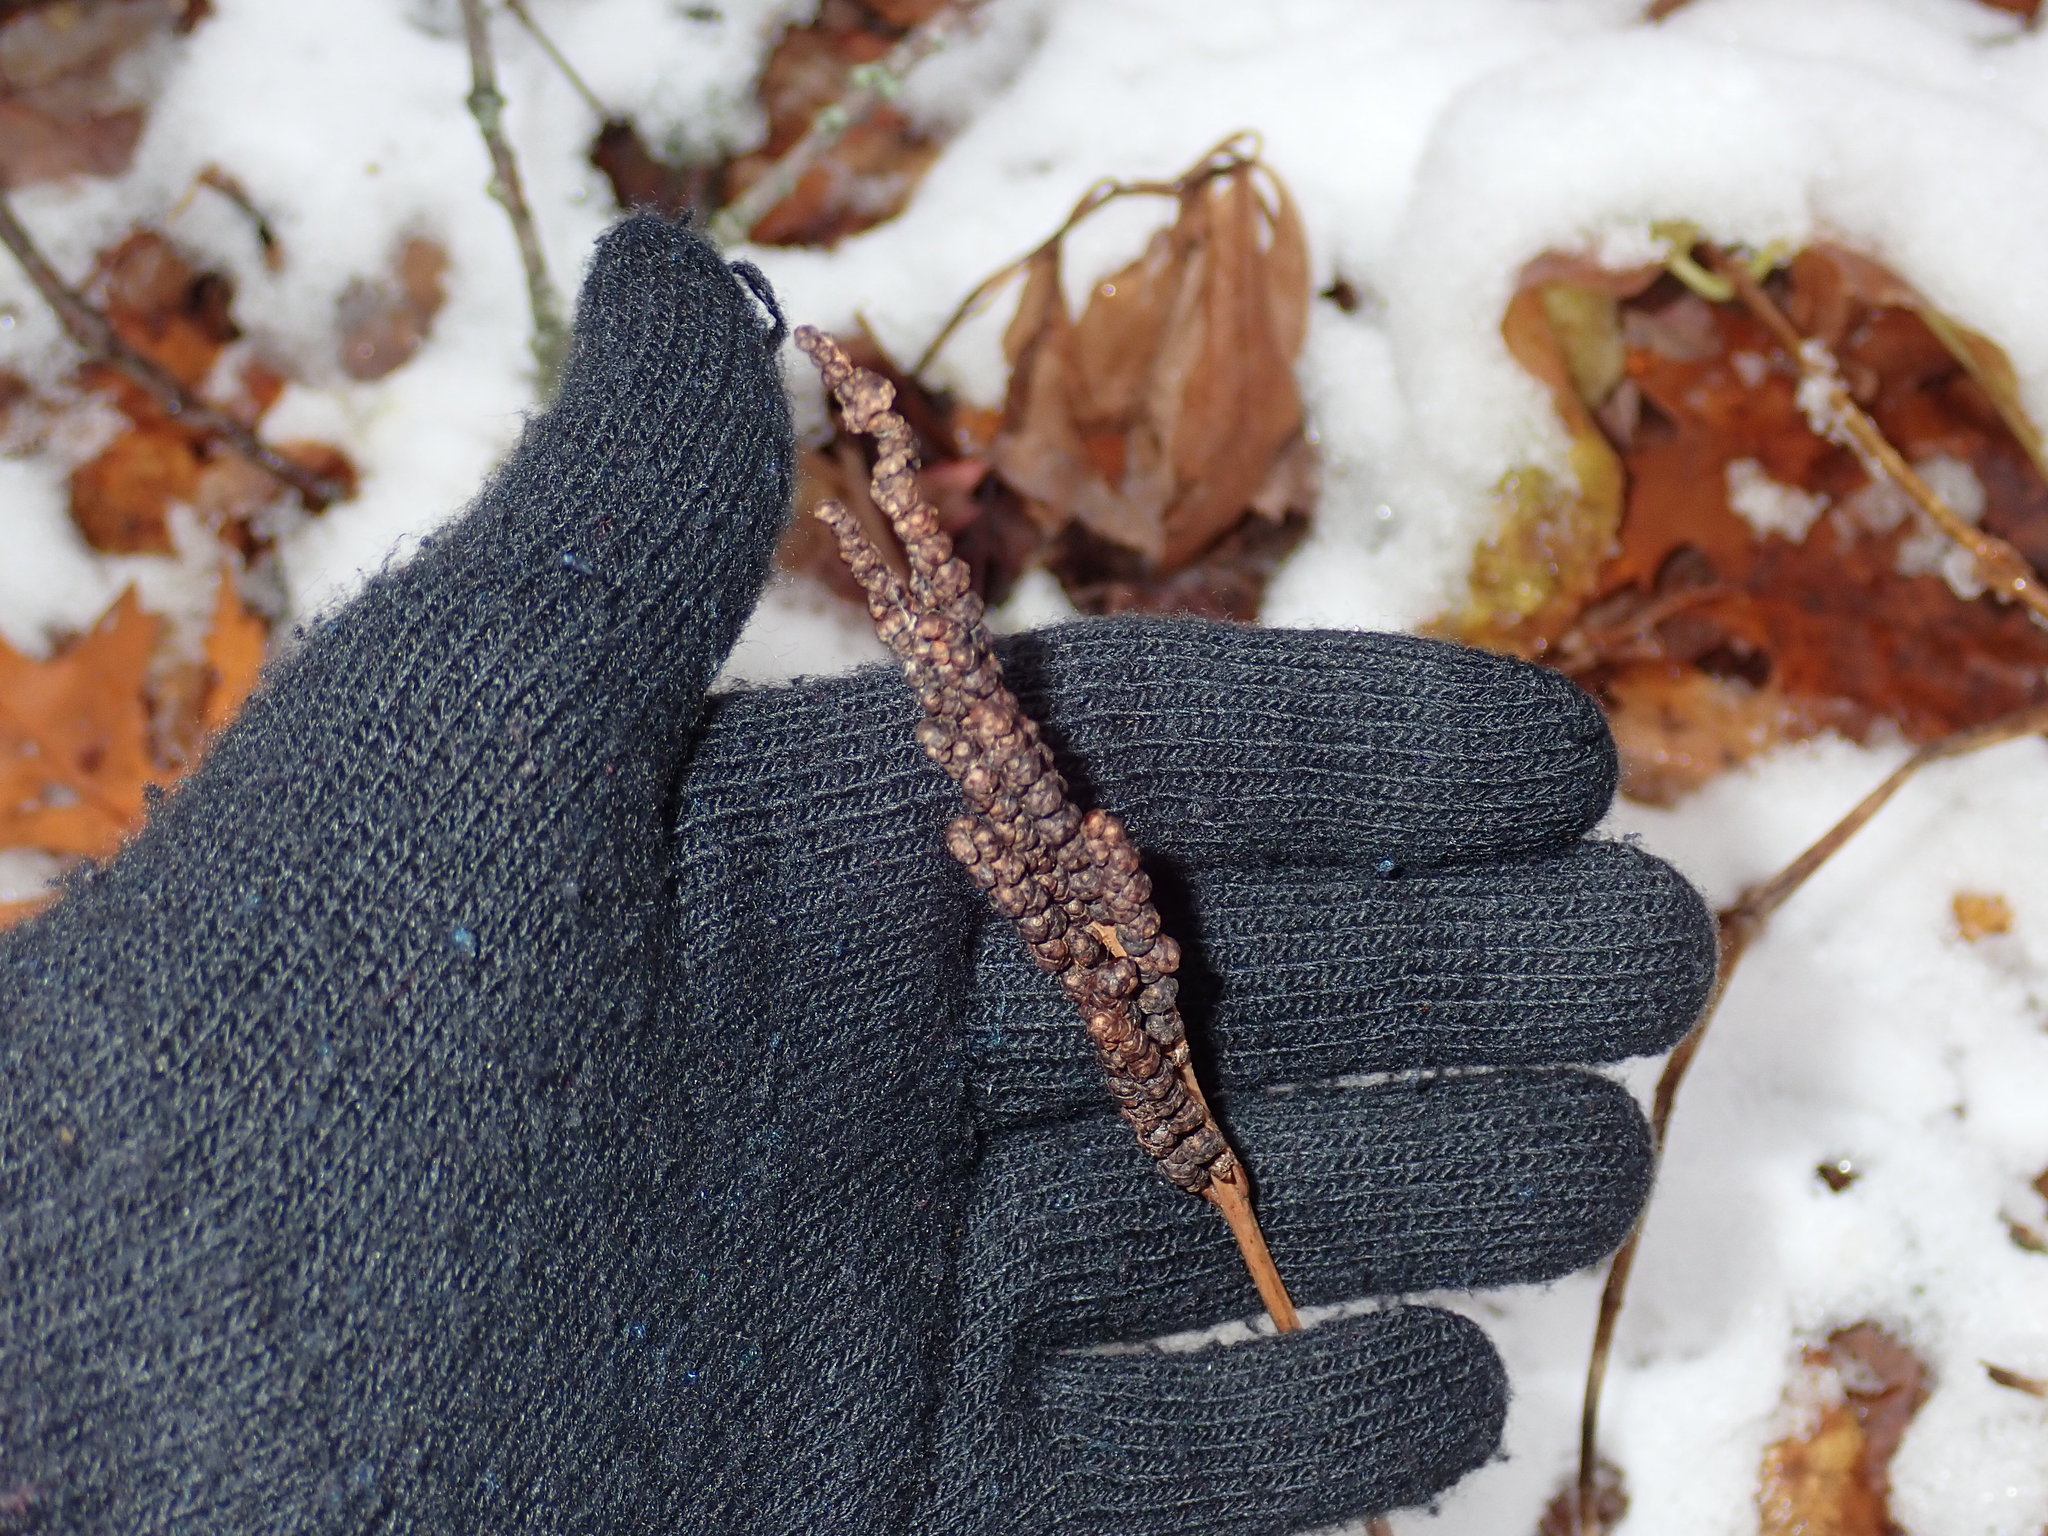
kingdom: Plantae
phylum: Tracheophyta
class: Polypodiopsida
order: Polypodiales
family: Onocleaceae
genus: Onoclea
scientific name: Onoclea sensibilis
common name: Sensitive fern
